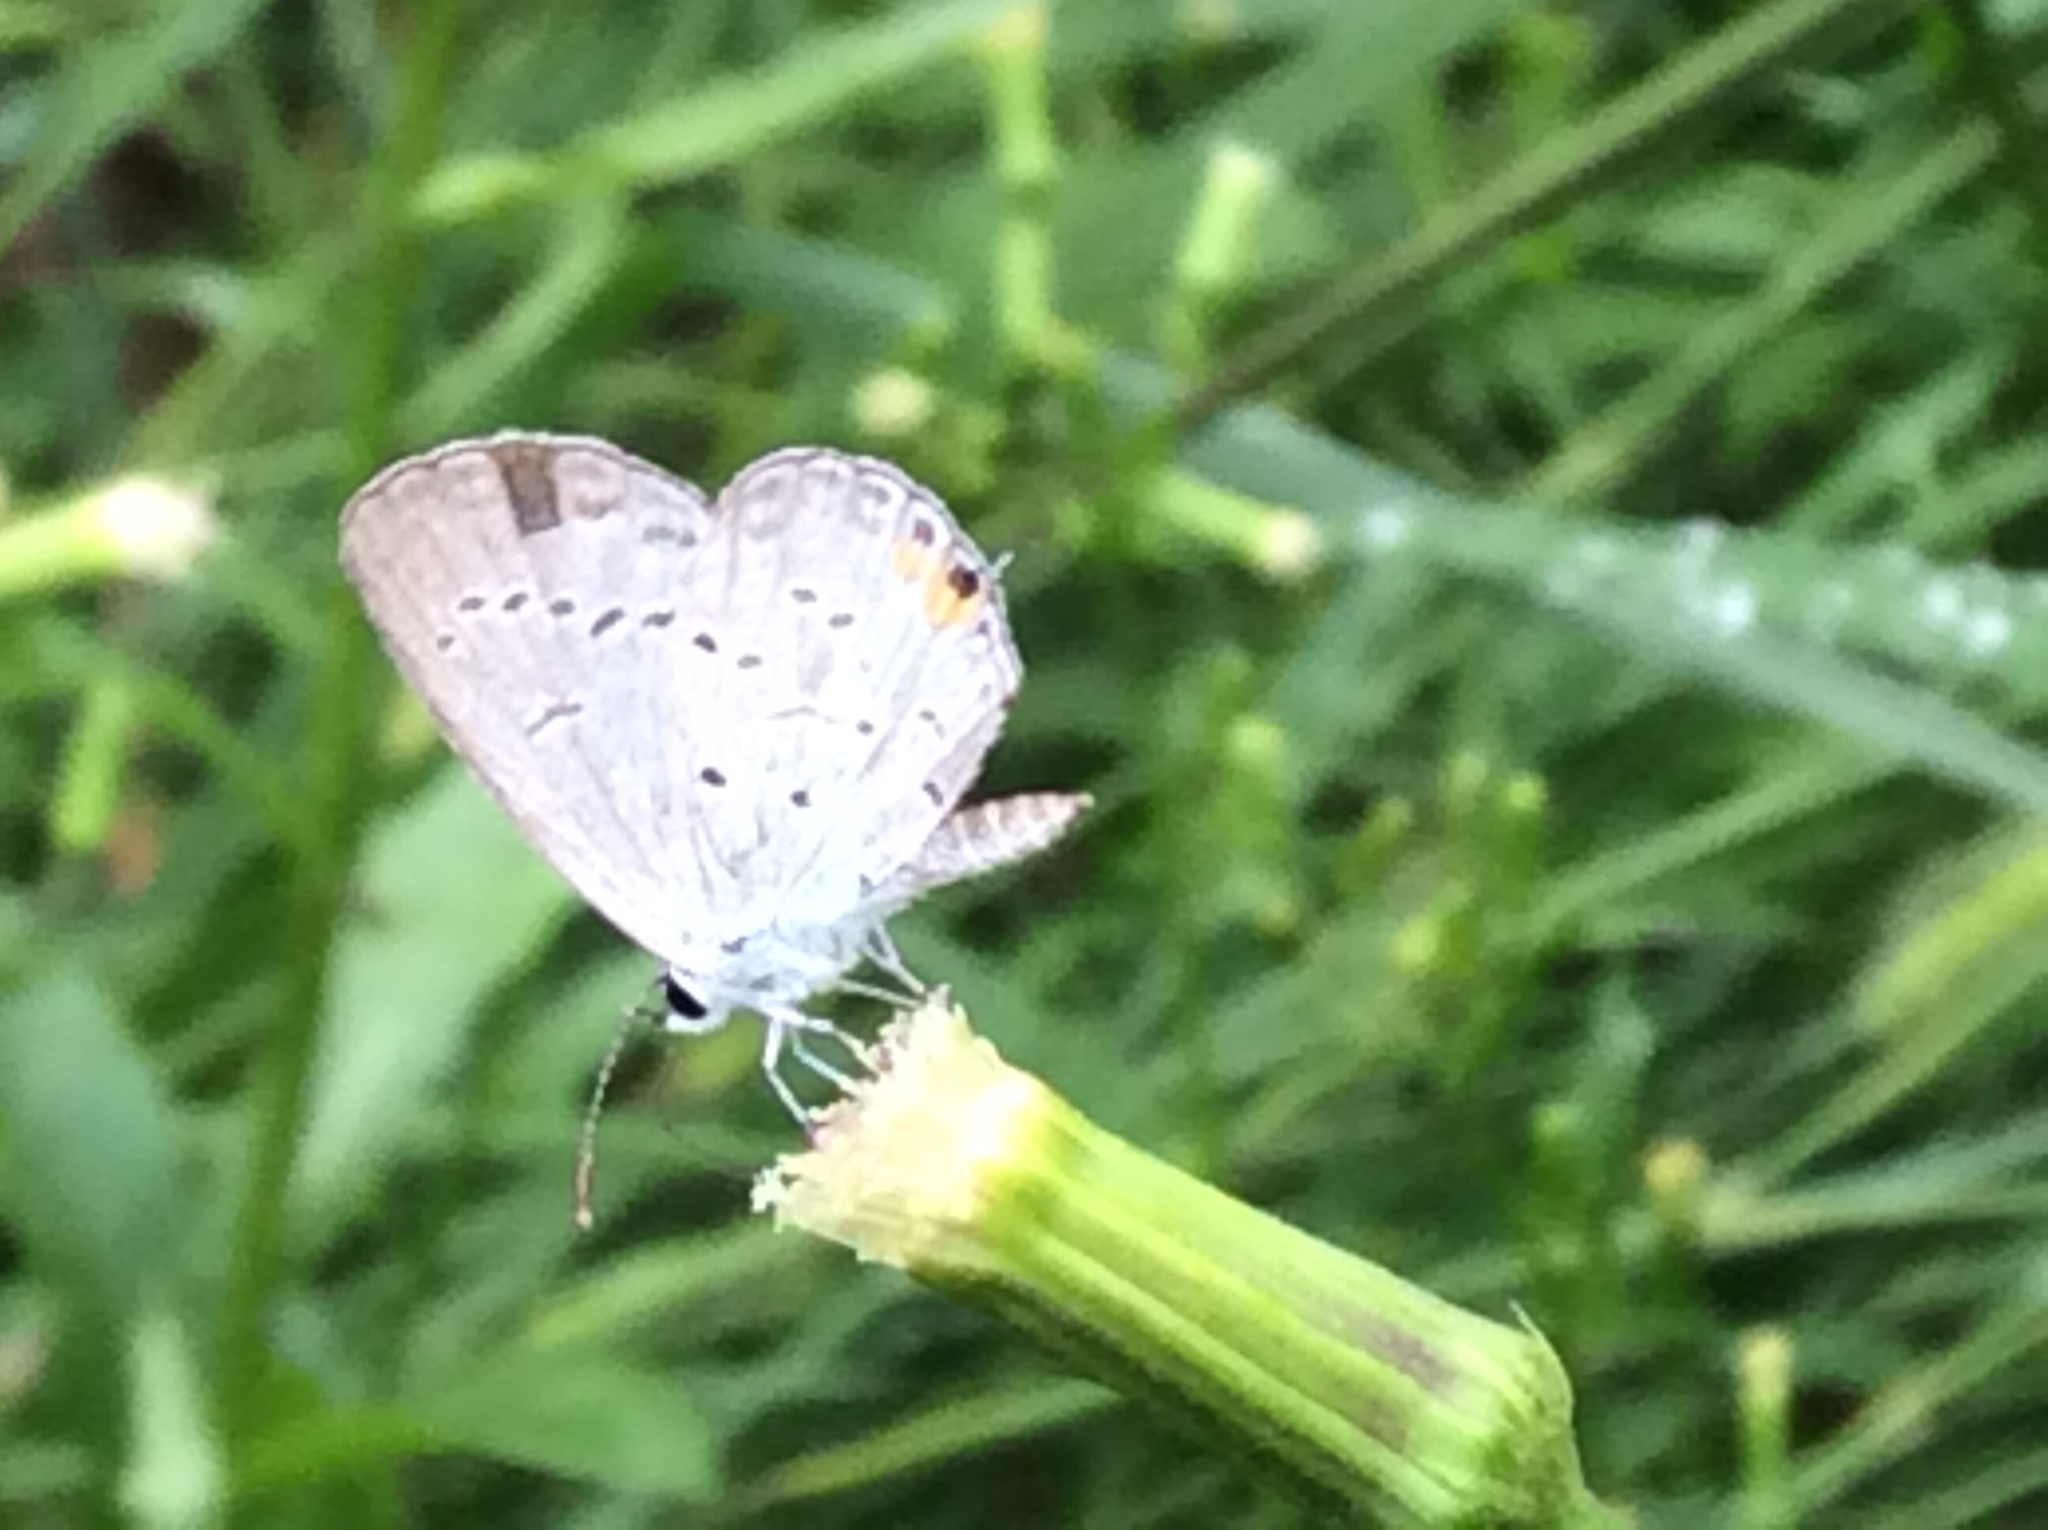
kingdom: Animalia
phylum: Arthropoda
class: Insecta
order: Lepidoptera
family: Lycaenidae
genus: Elkalyce
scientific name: Elkalyce comyntas
